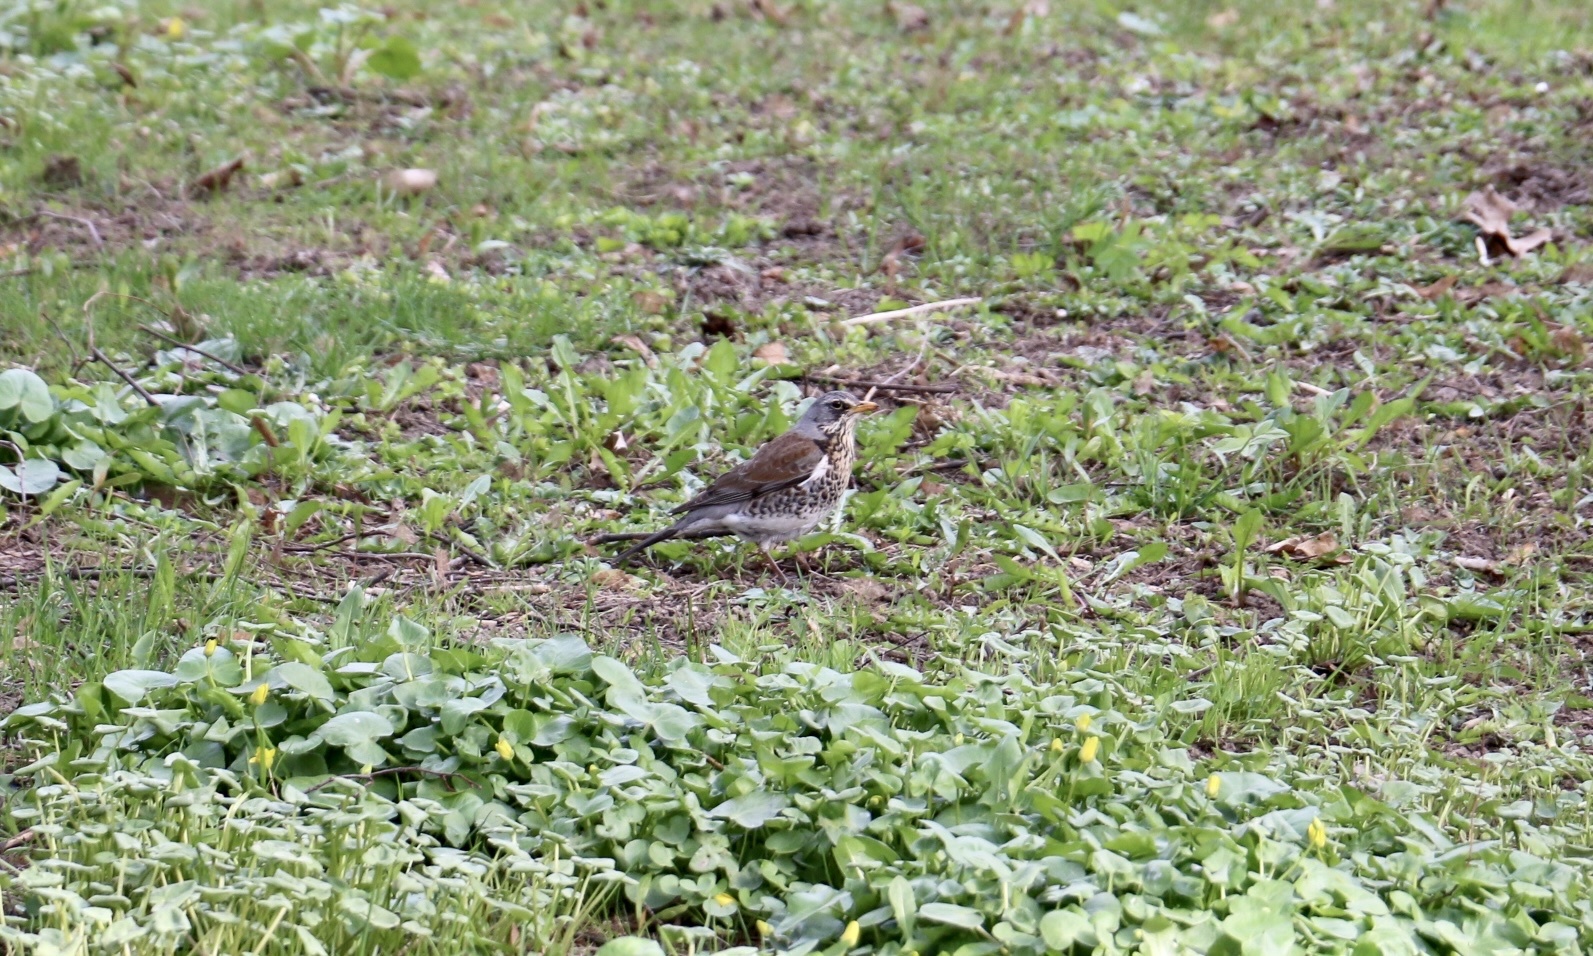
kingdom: Animalia
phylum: Chordata
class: Aves
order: Passeriformes
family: Turdidae
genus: Turdus
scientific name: Turdus pilaris
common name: Fieldfare
